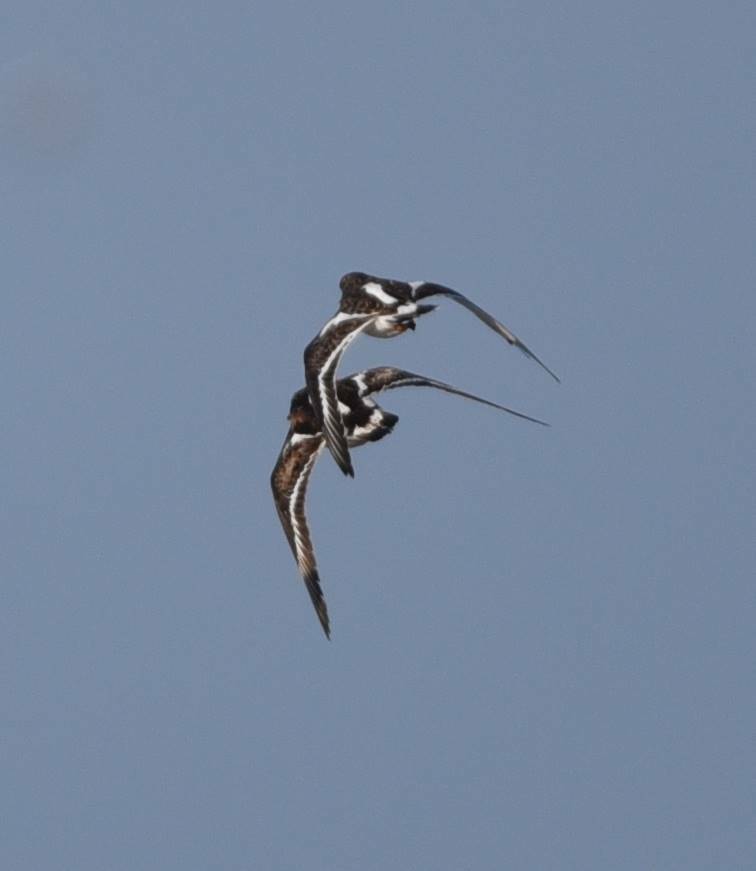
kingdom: Animalia
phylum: Chordata
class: Aves
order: Charadriiformes
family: Scolopacidae
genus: Arenaria
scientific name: Arenaria interpres
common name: Ruddy turnstone
